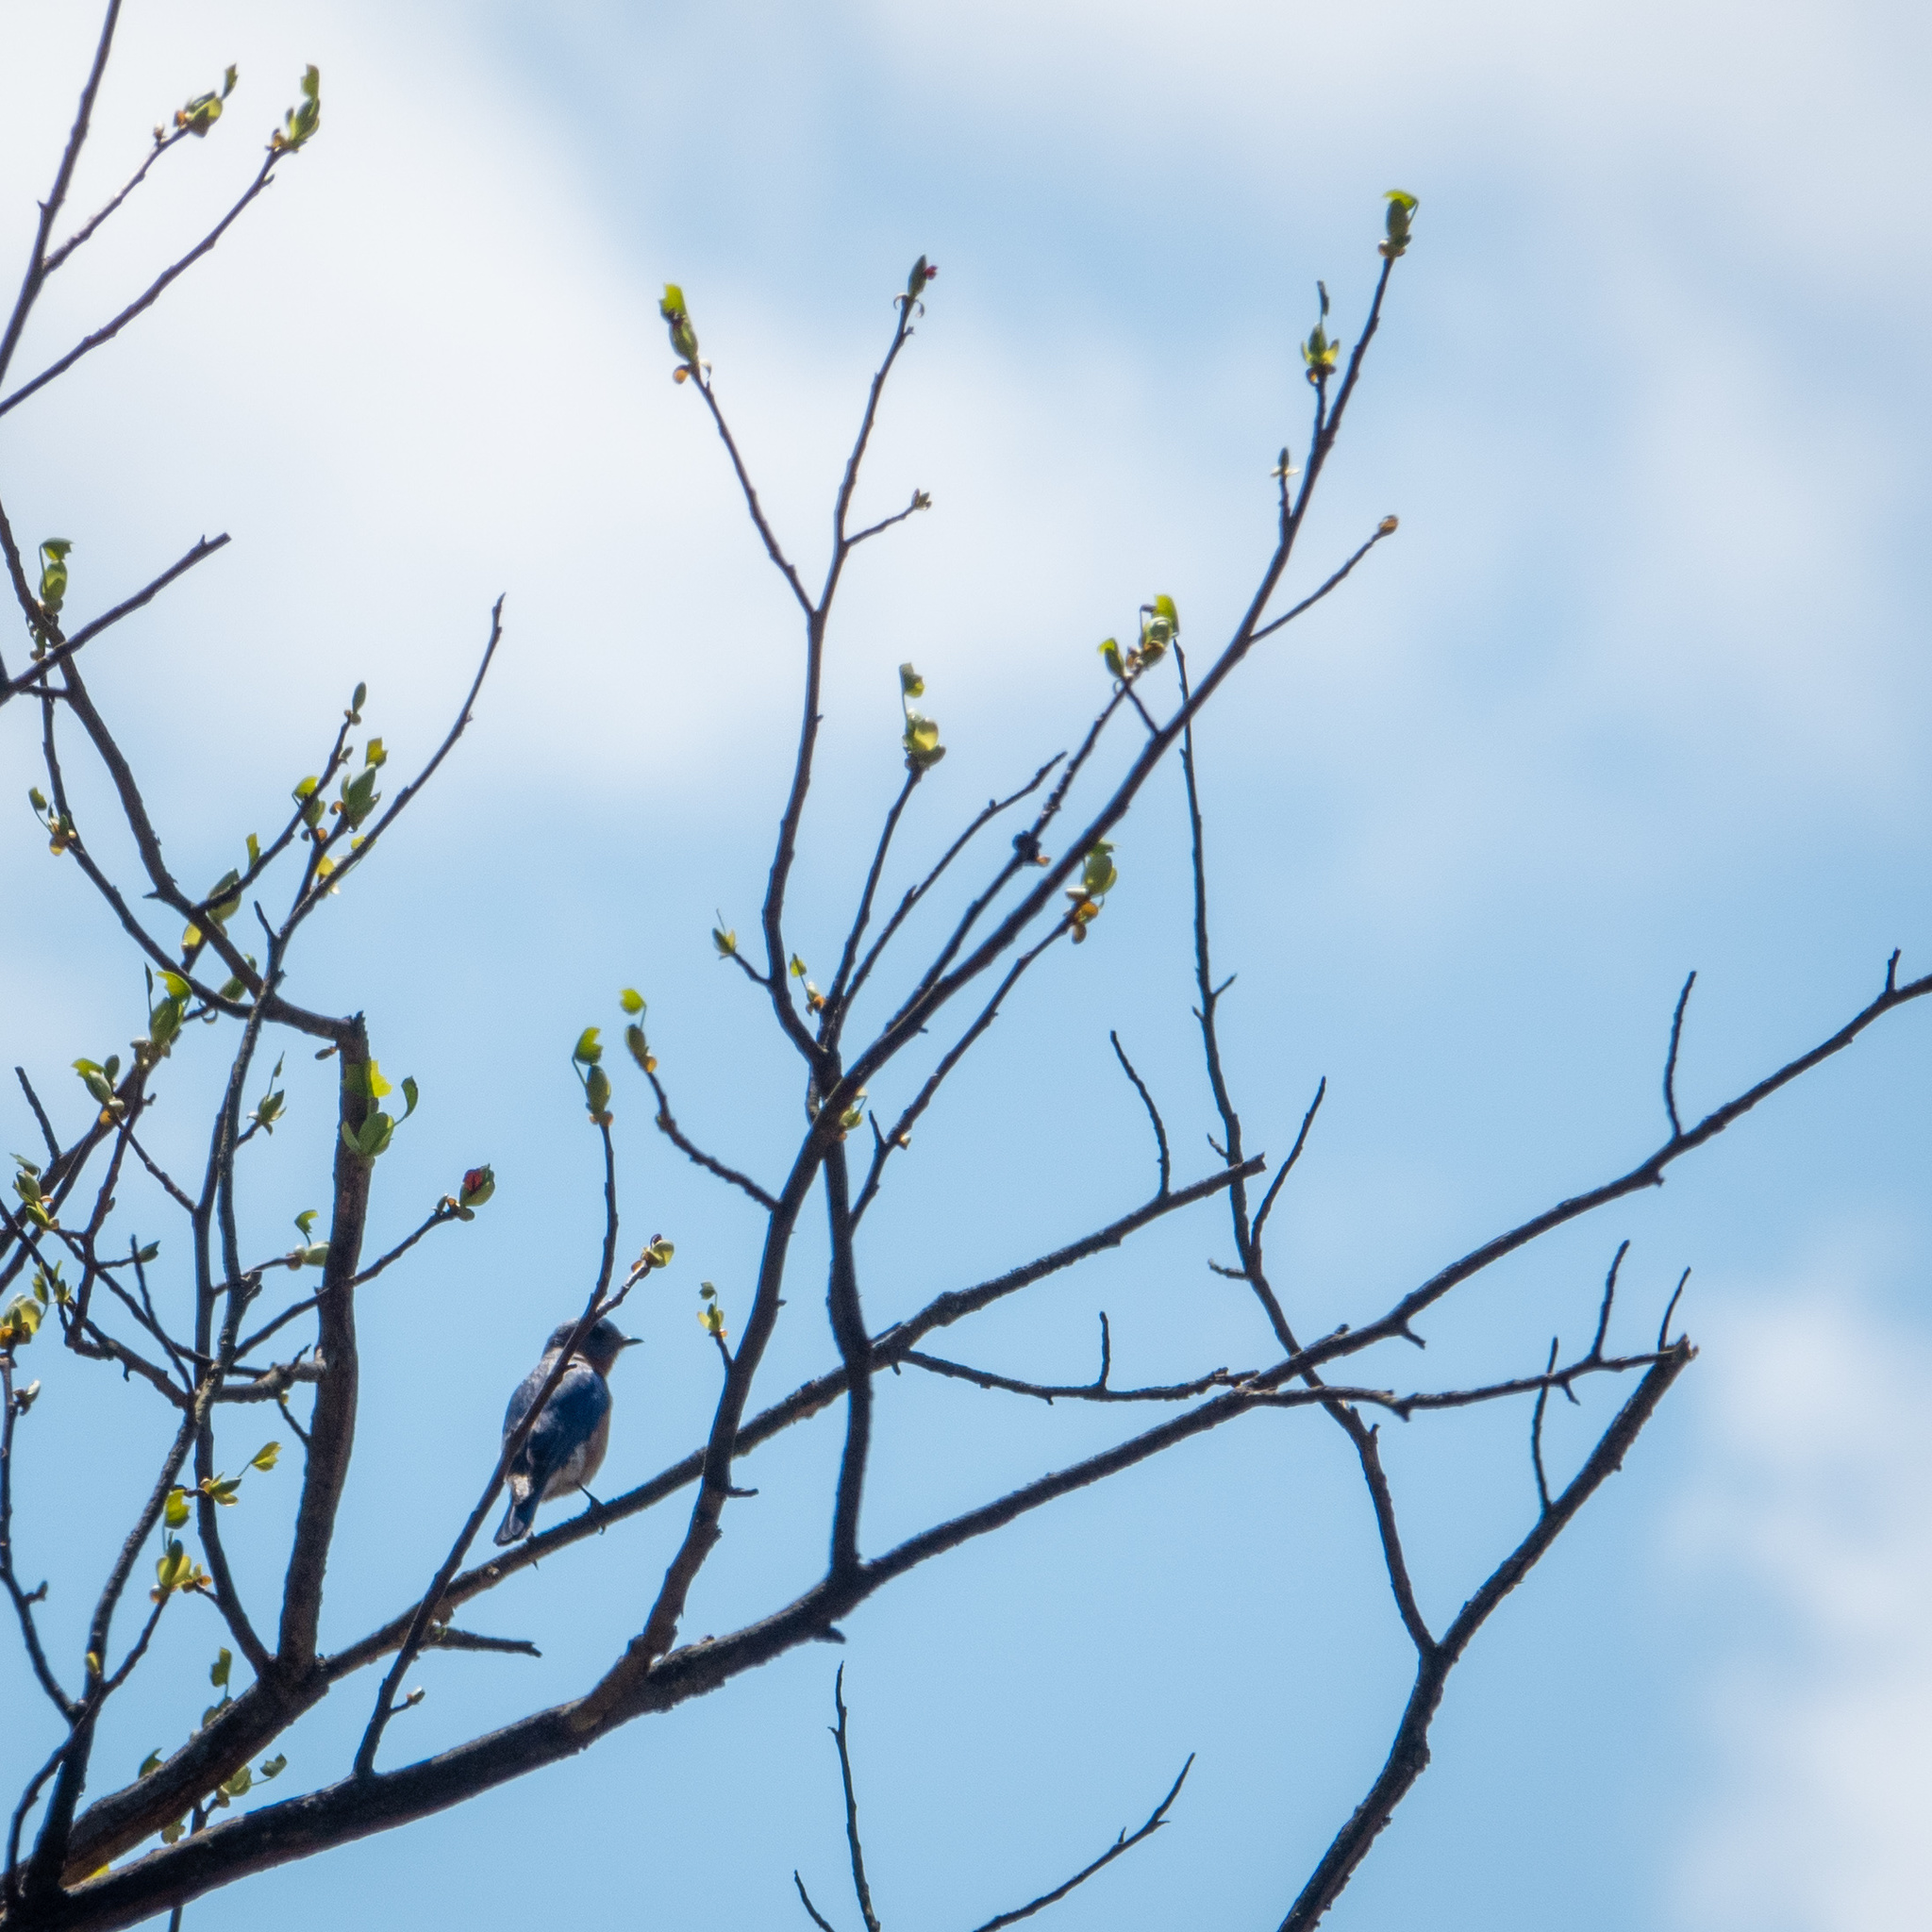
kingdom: Animalia
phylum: Chordata
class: Aves
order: Passeriformes
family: Turdidae
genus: Sialia
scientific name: Sialia sialis
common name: Eastern bluebird
